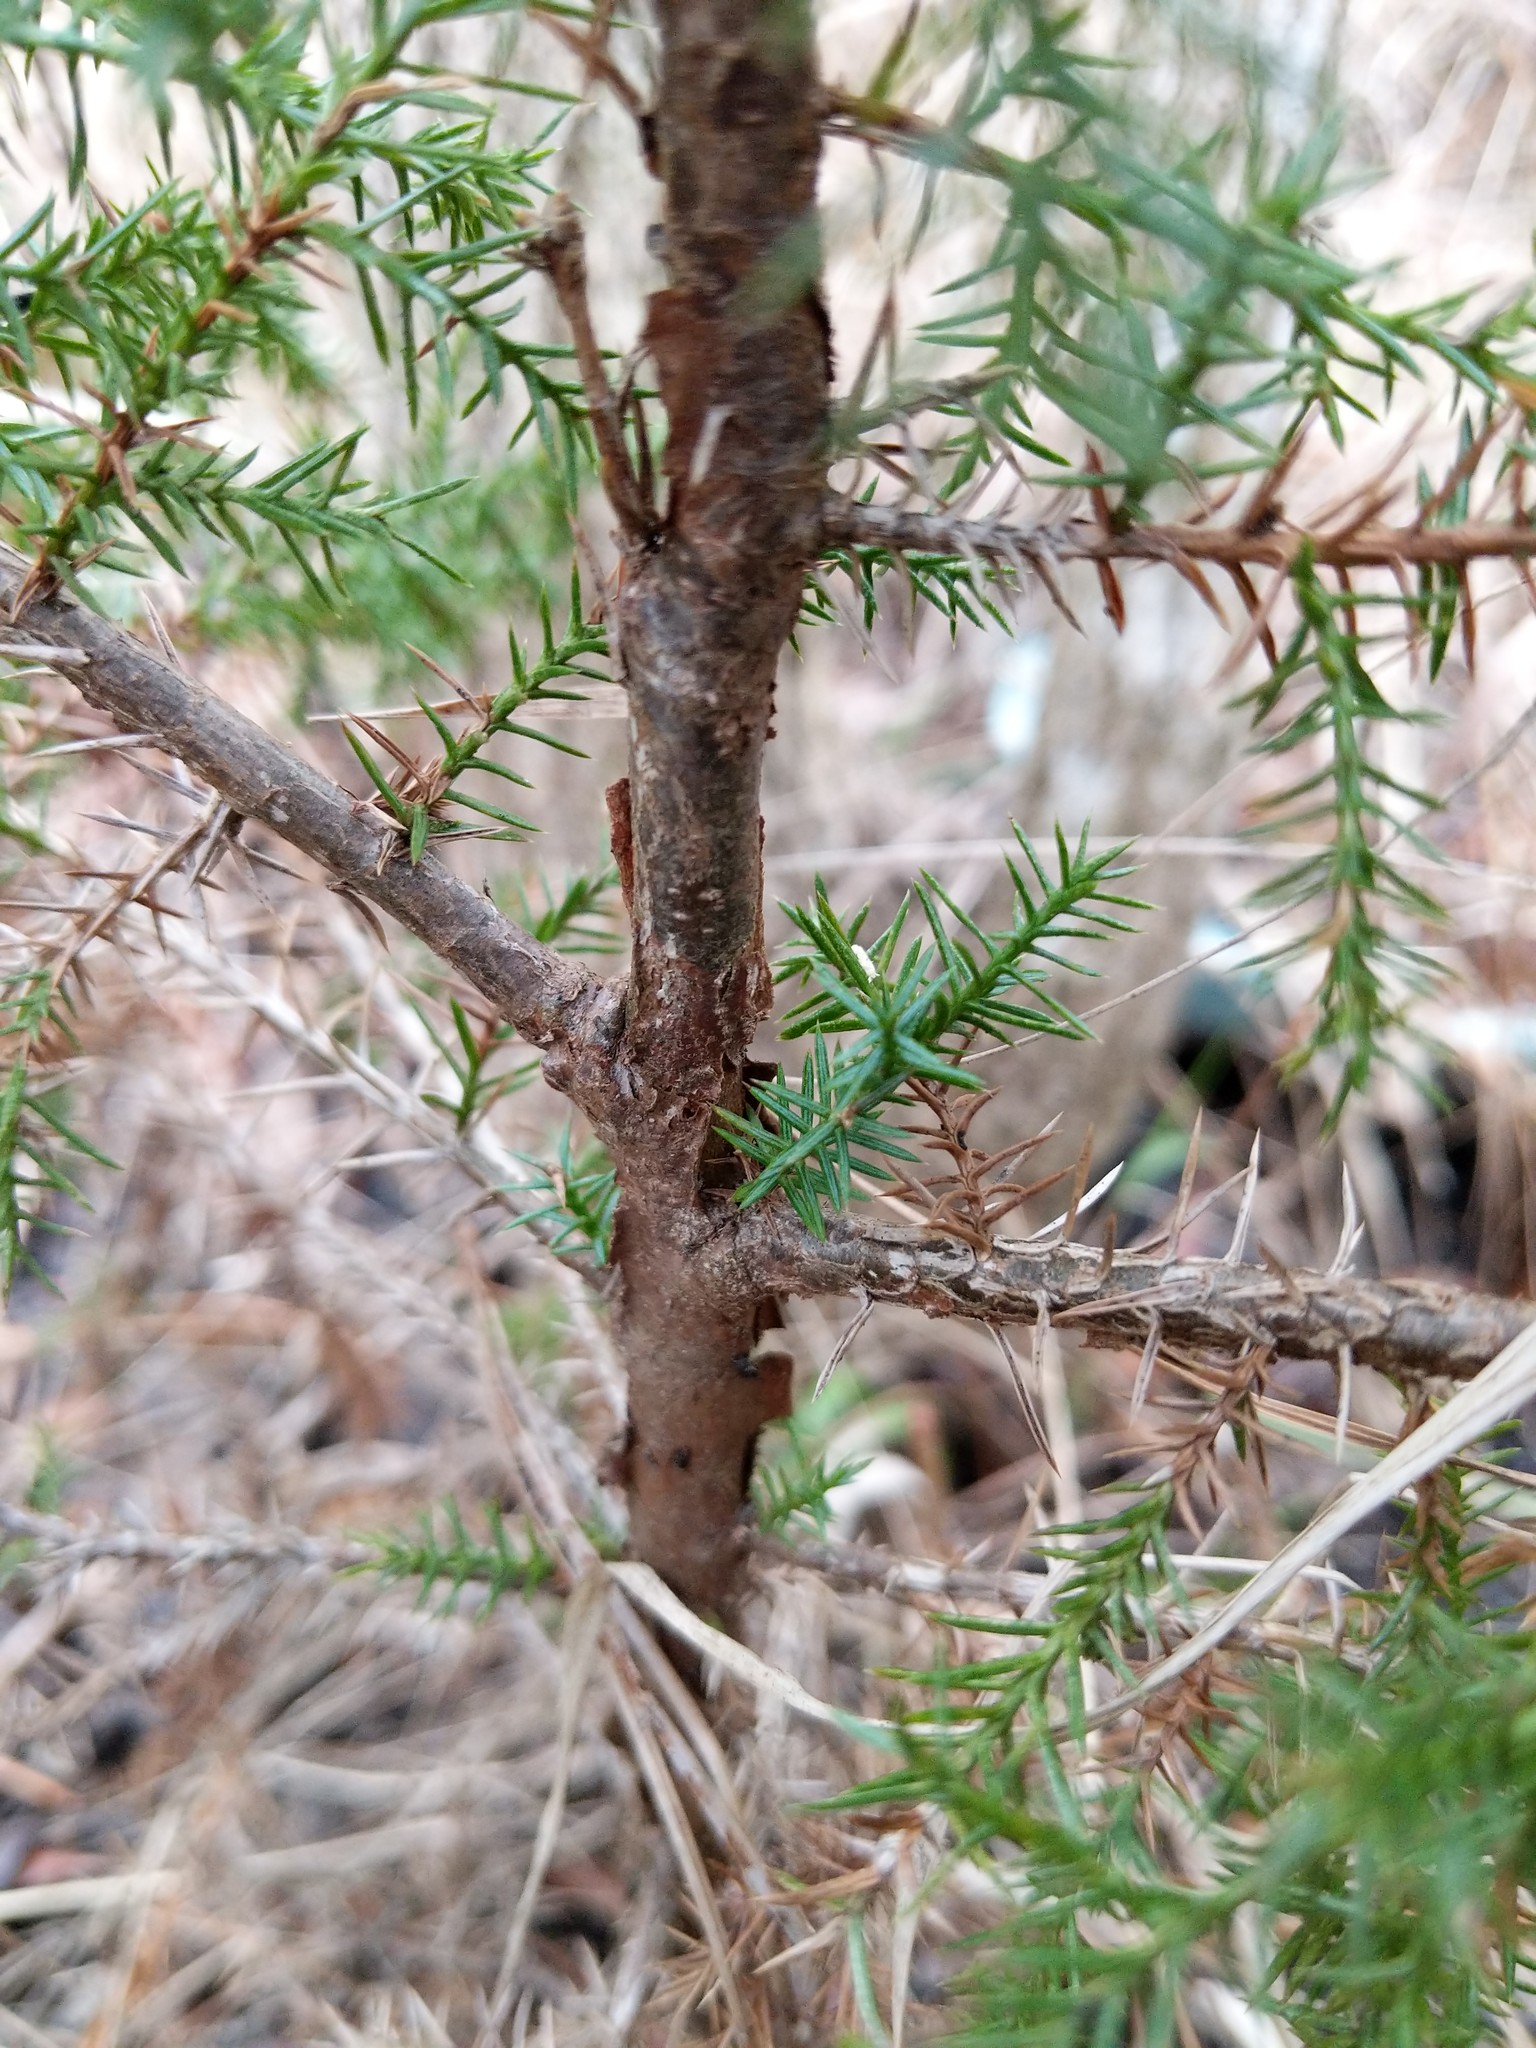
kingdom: Plantae
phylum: Tracheophyta
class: Pinopsida
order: Pinales
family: Cupressaceae
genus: Juniperus
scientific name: Juniperus virginiana
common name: Red juniper
